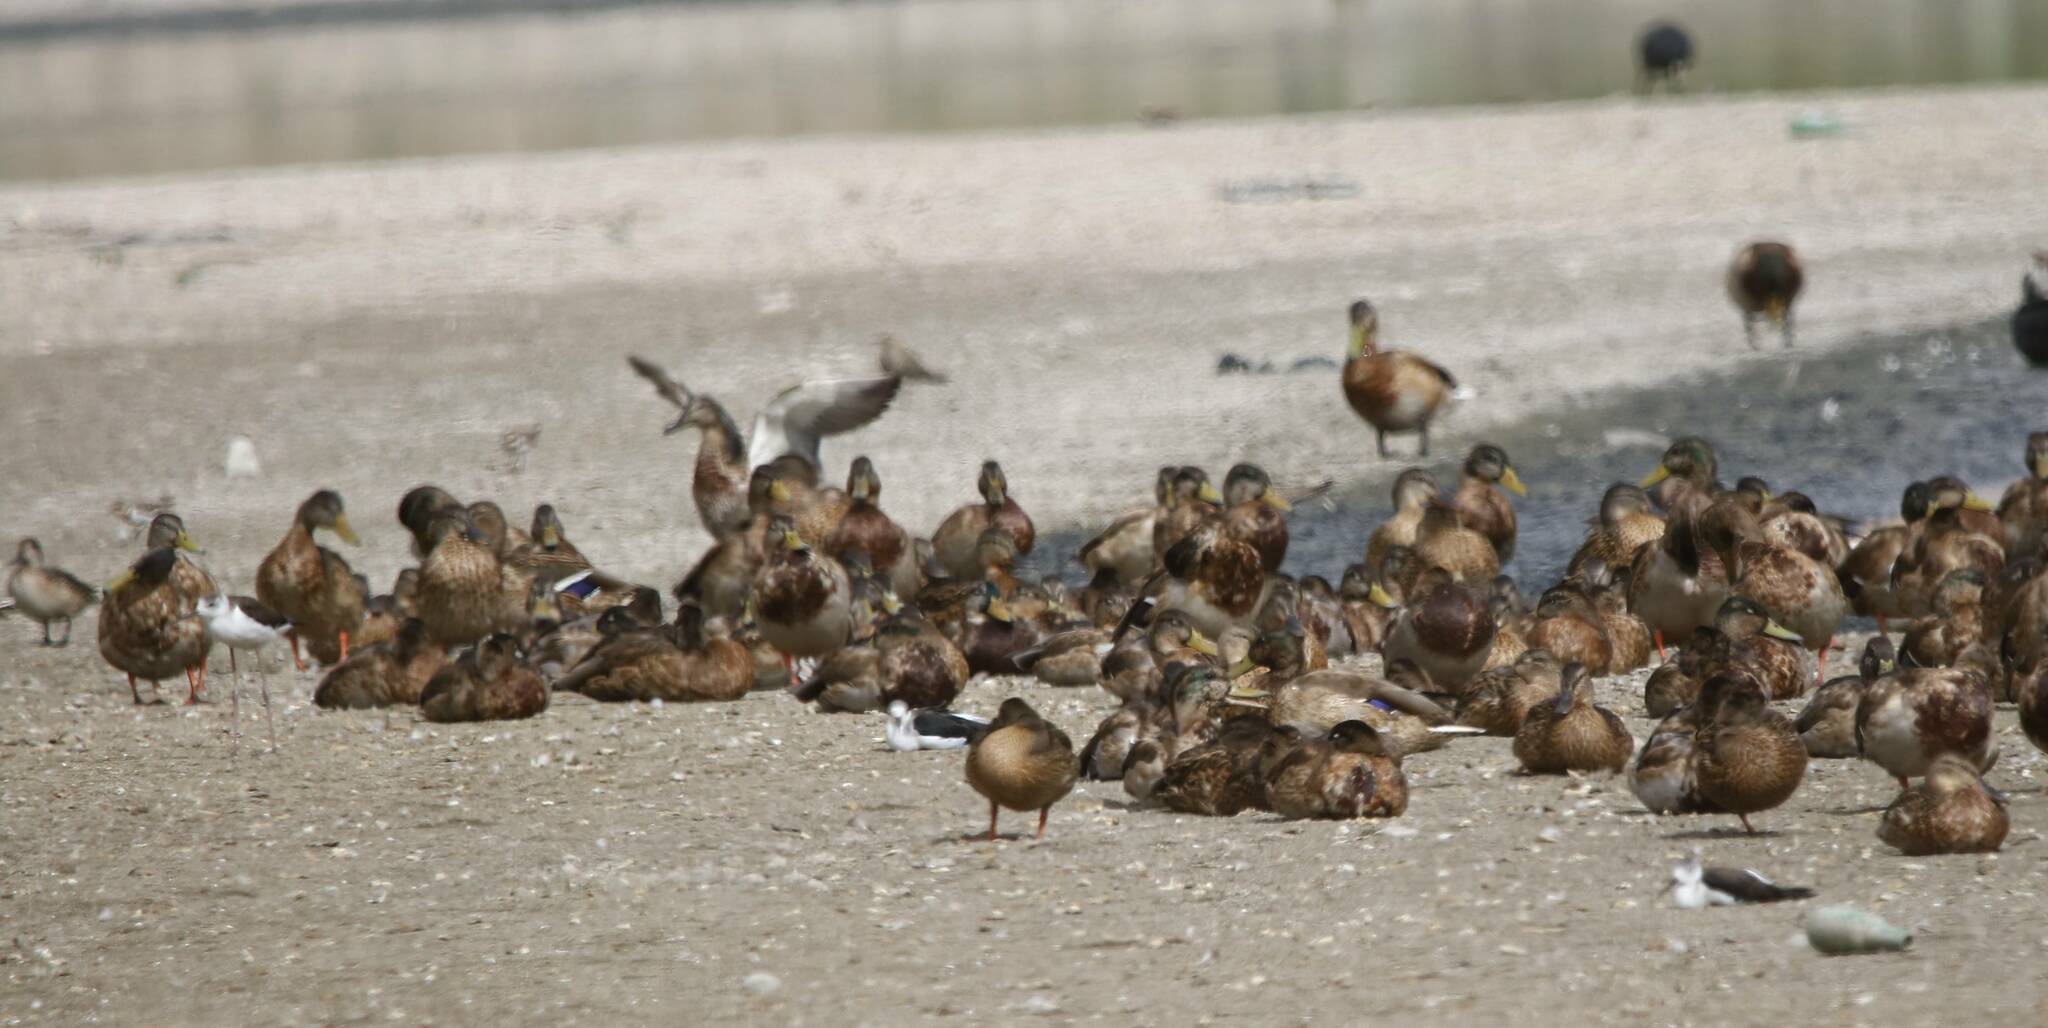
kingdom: Animalia
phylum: Chordata
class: Aves
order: Anseriformes
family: Anatidae
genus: Anas
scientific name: Anas platyrhynchos
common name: Mallard
